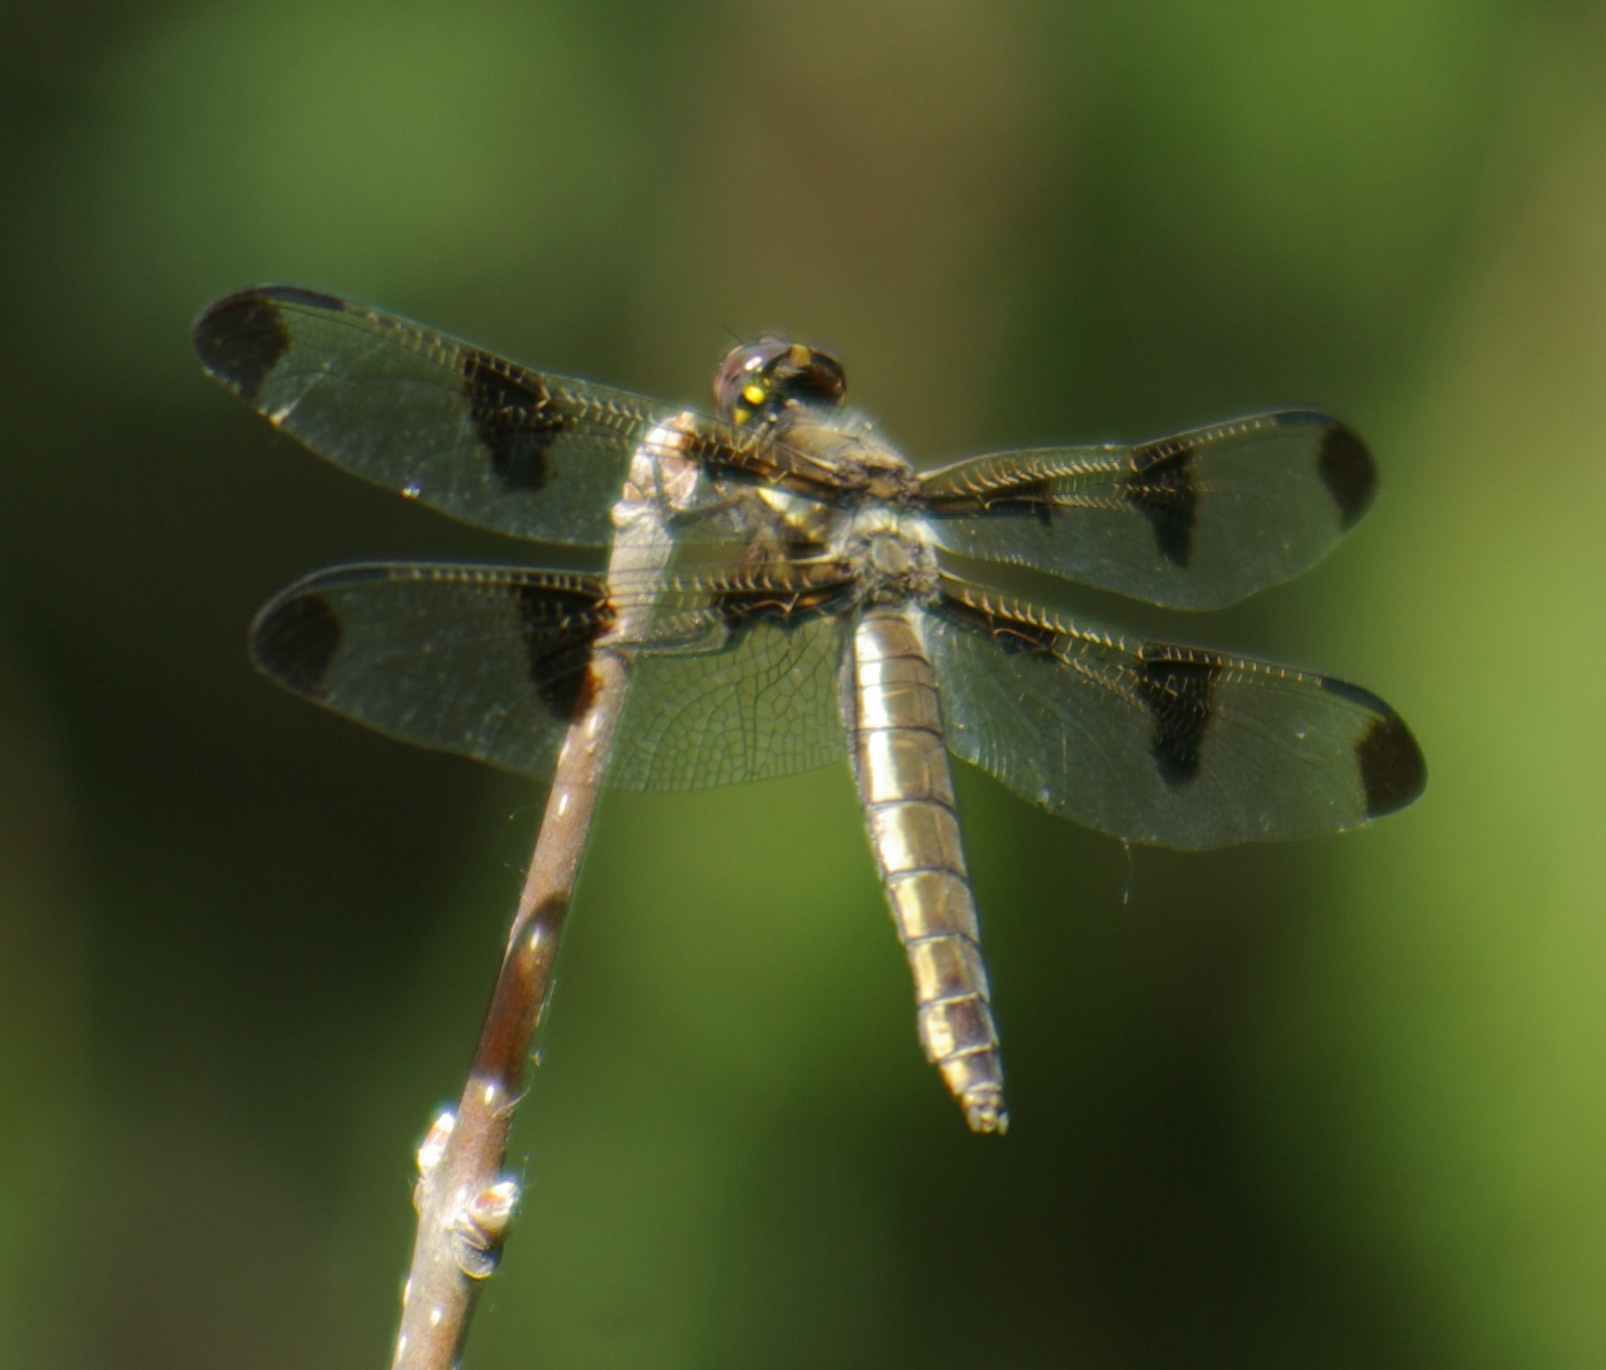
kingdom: Animalia
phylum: Arthropoda
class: Insecta
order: Odonata
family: Libellulidae
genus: Libellula
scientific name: Libellula pulchella
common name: Twelve-spotted skimmer
